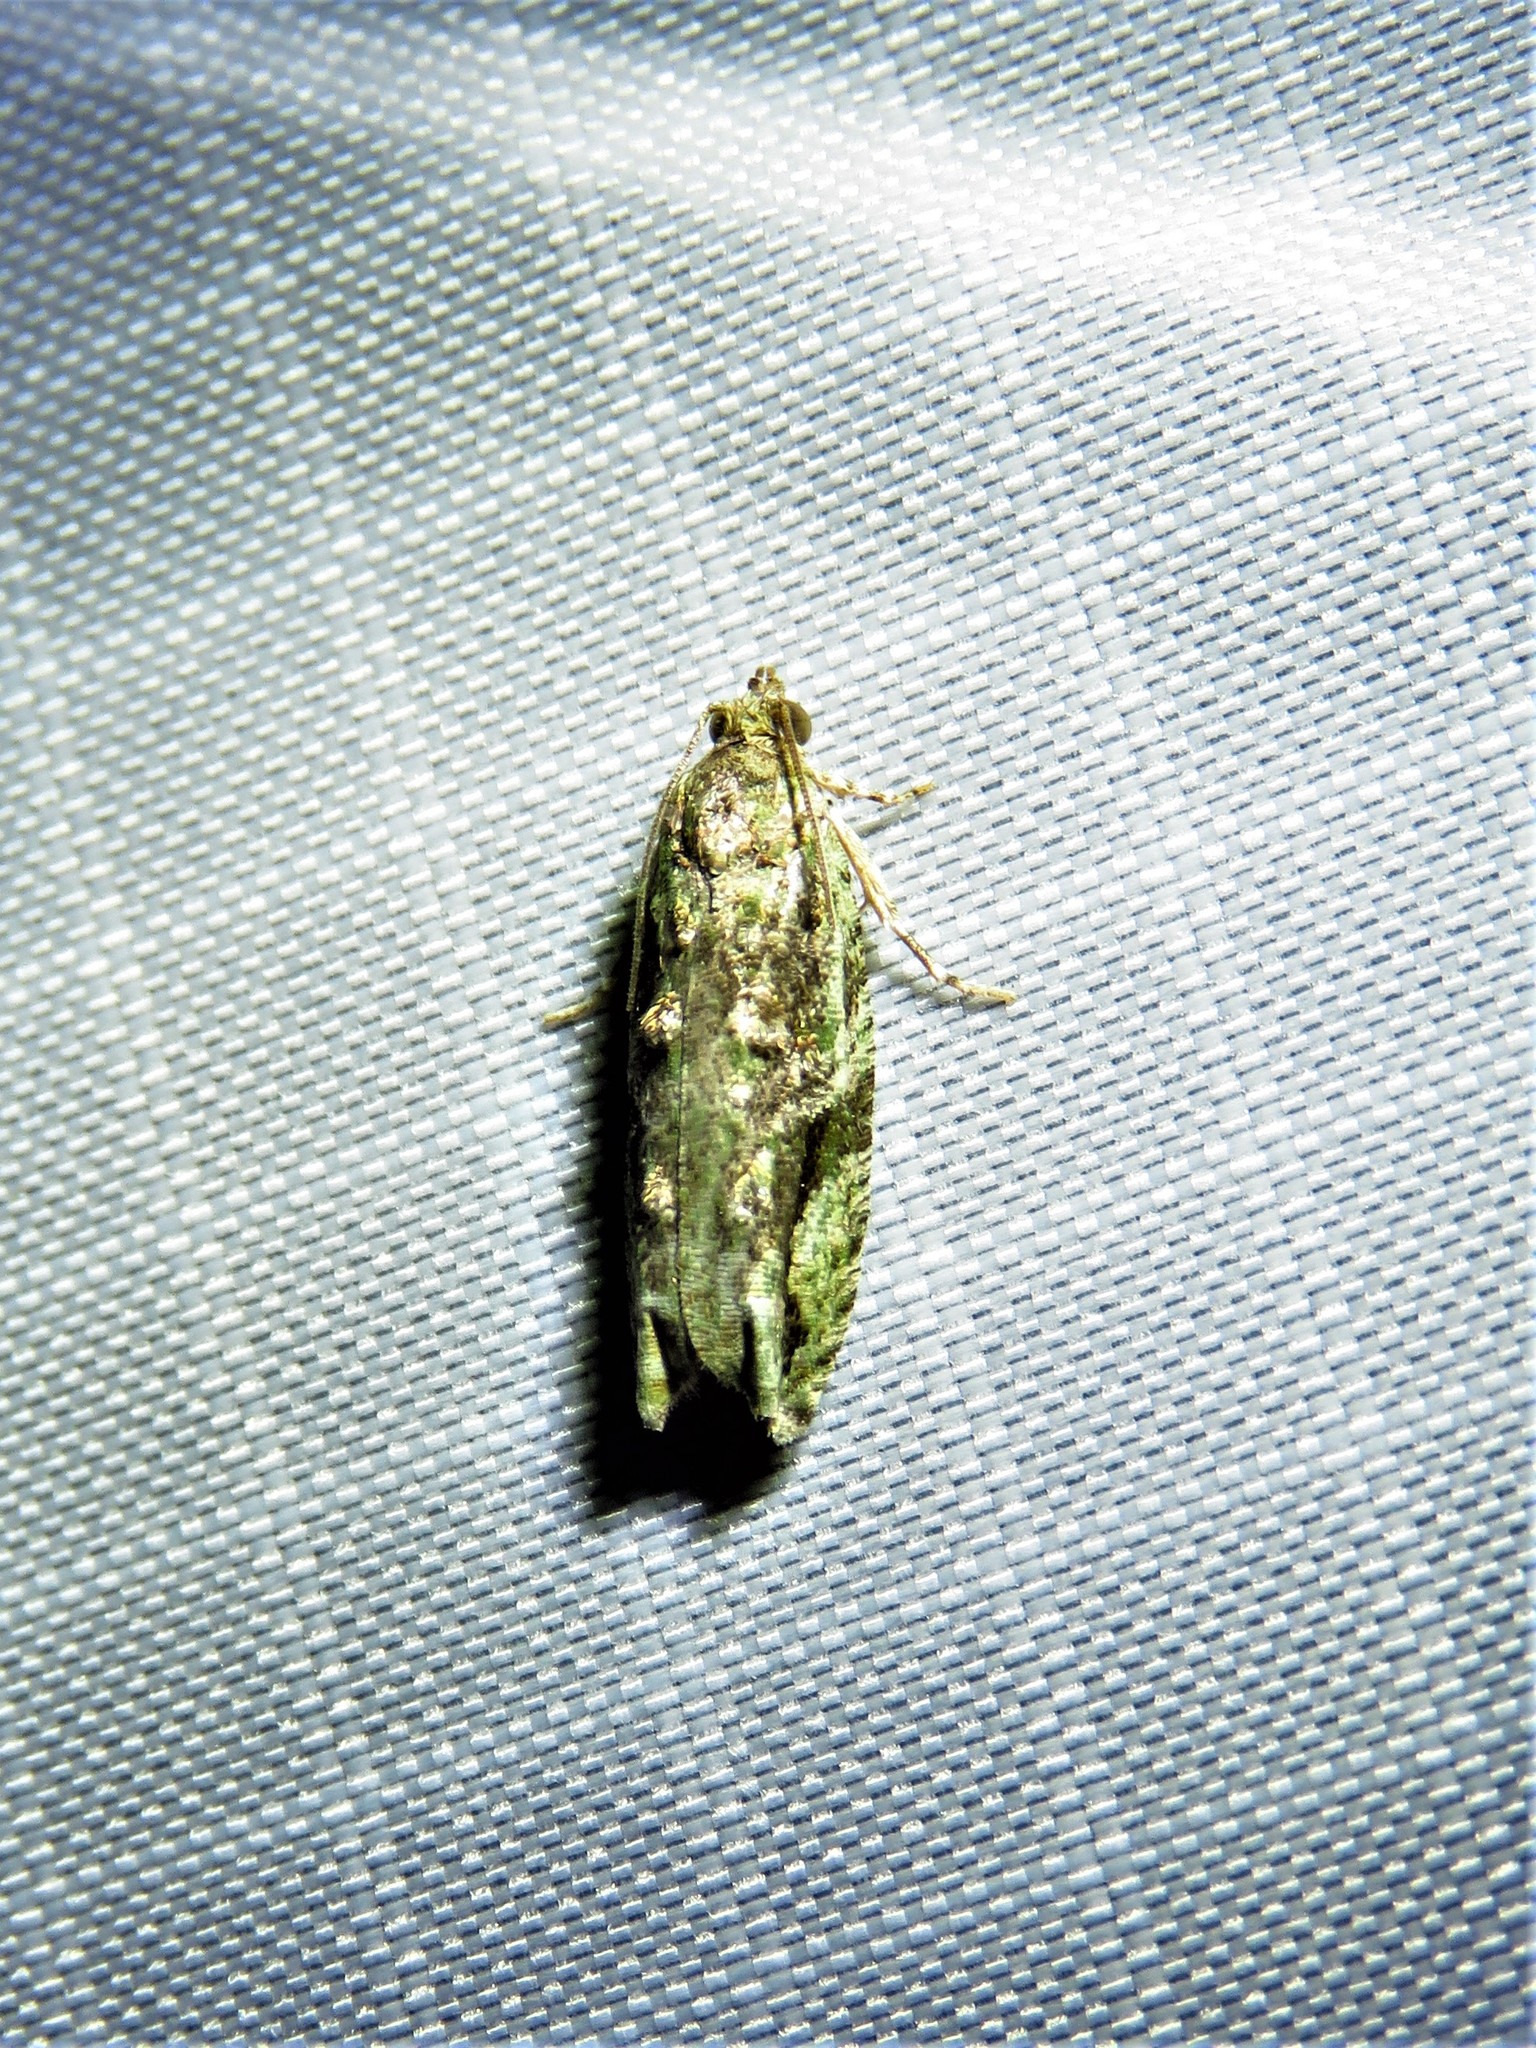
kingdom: Animalia
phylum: Arthropoda
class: Insecta
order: Lepidoptera
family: Tortricidae
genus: Proteoteras
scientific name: Proteoteras aesculana
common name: Maple twig borer moth
